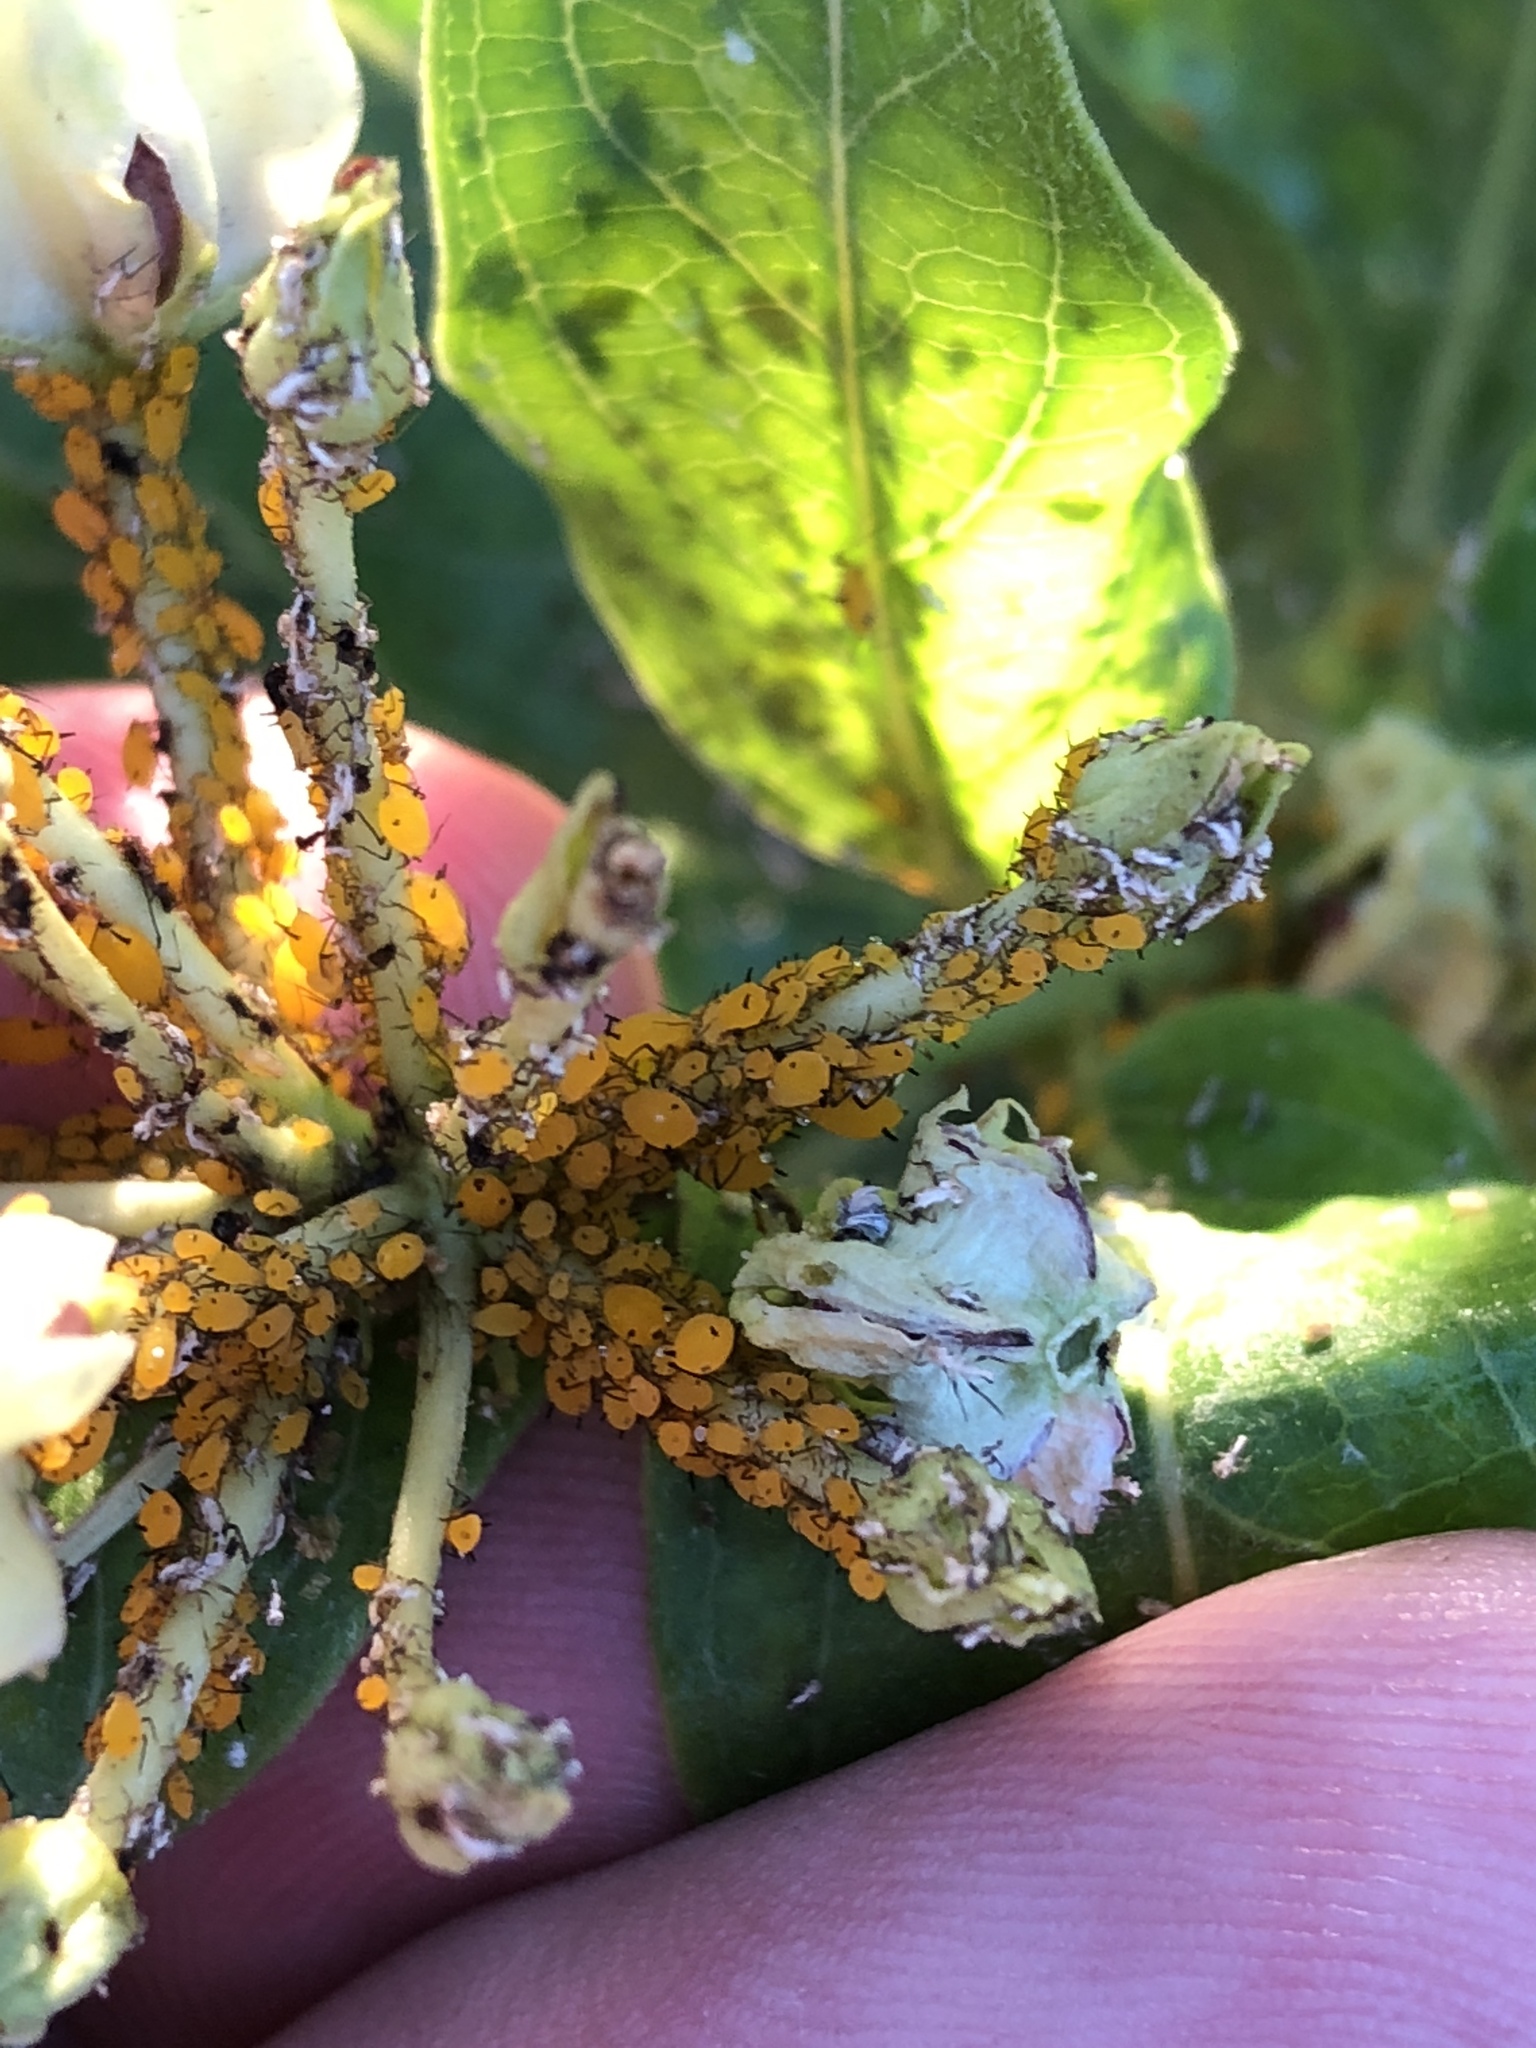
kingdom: Animalia
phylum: Arthropoda
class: Insecta
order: Hemiptera
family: Aphididae
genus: Aphis
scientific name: Aphis nerii
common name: Oleander aphid
